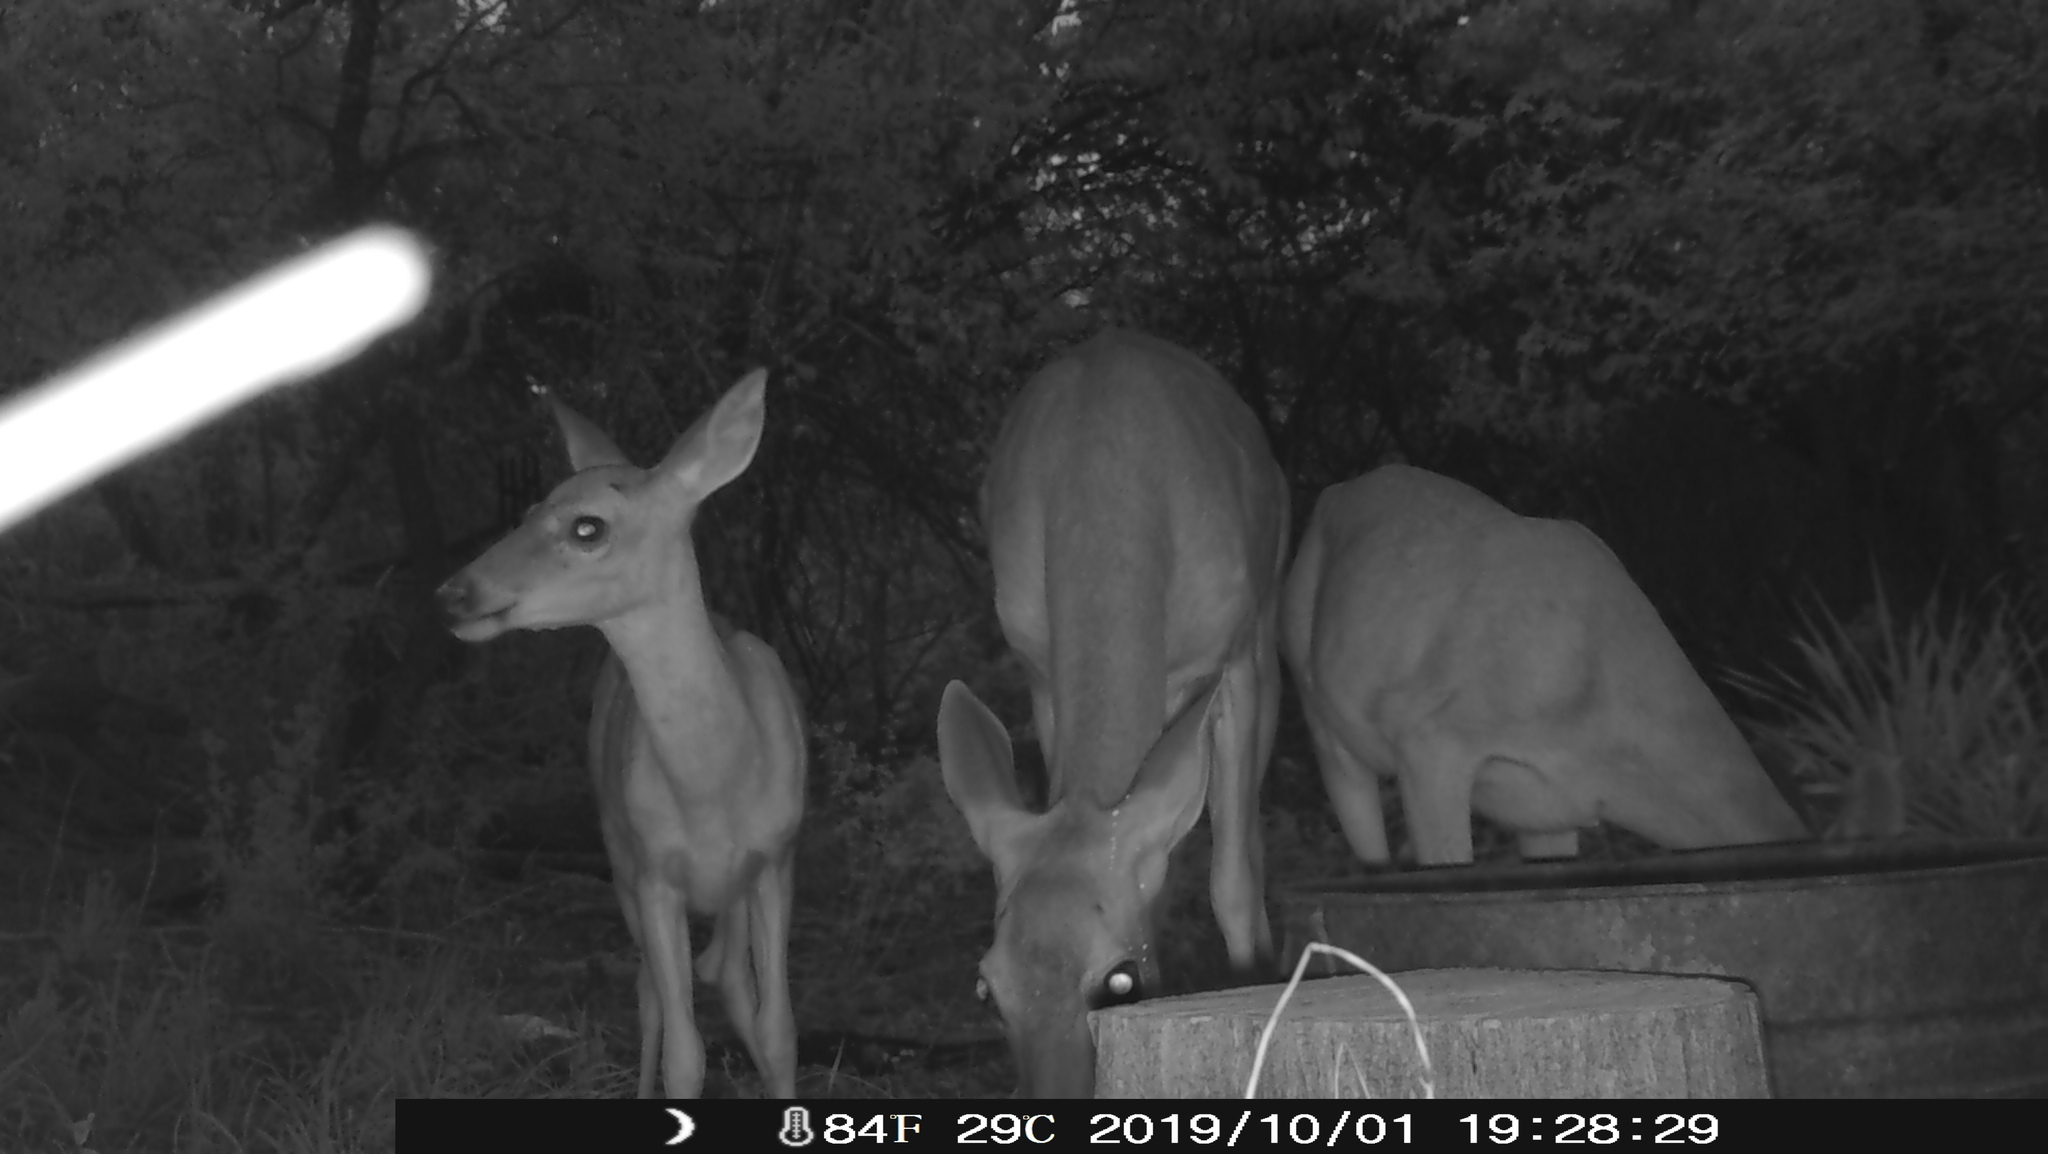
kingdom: Animalia
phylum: Chordata
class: Mammalia
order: Artiodactyla
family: Cervidae
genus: Odocoileus
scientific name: Odocoileus virginianus
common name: White-tailed deer
